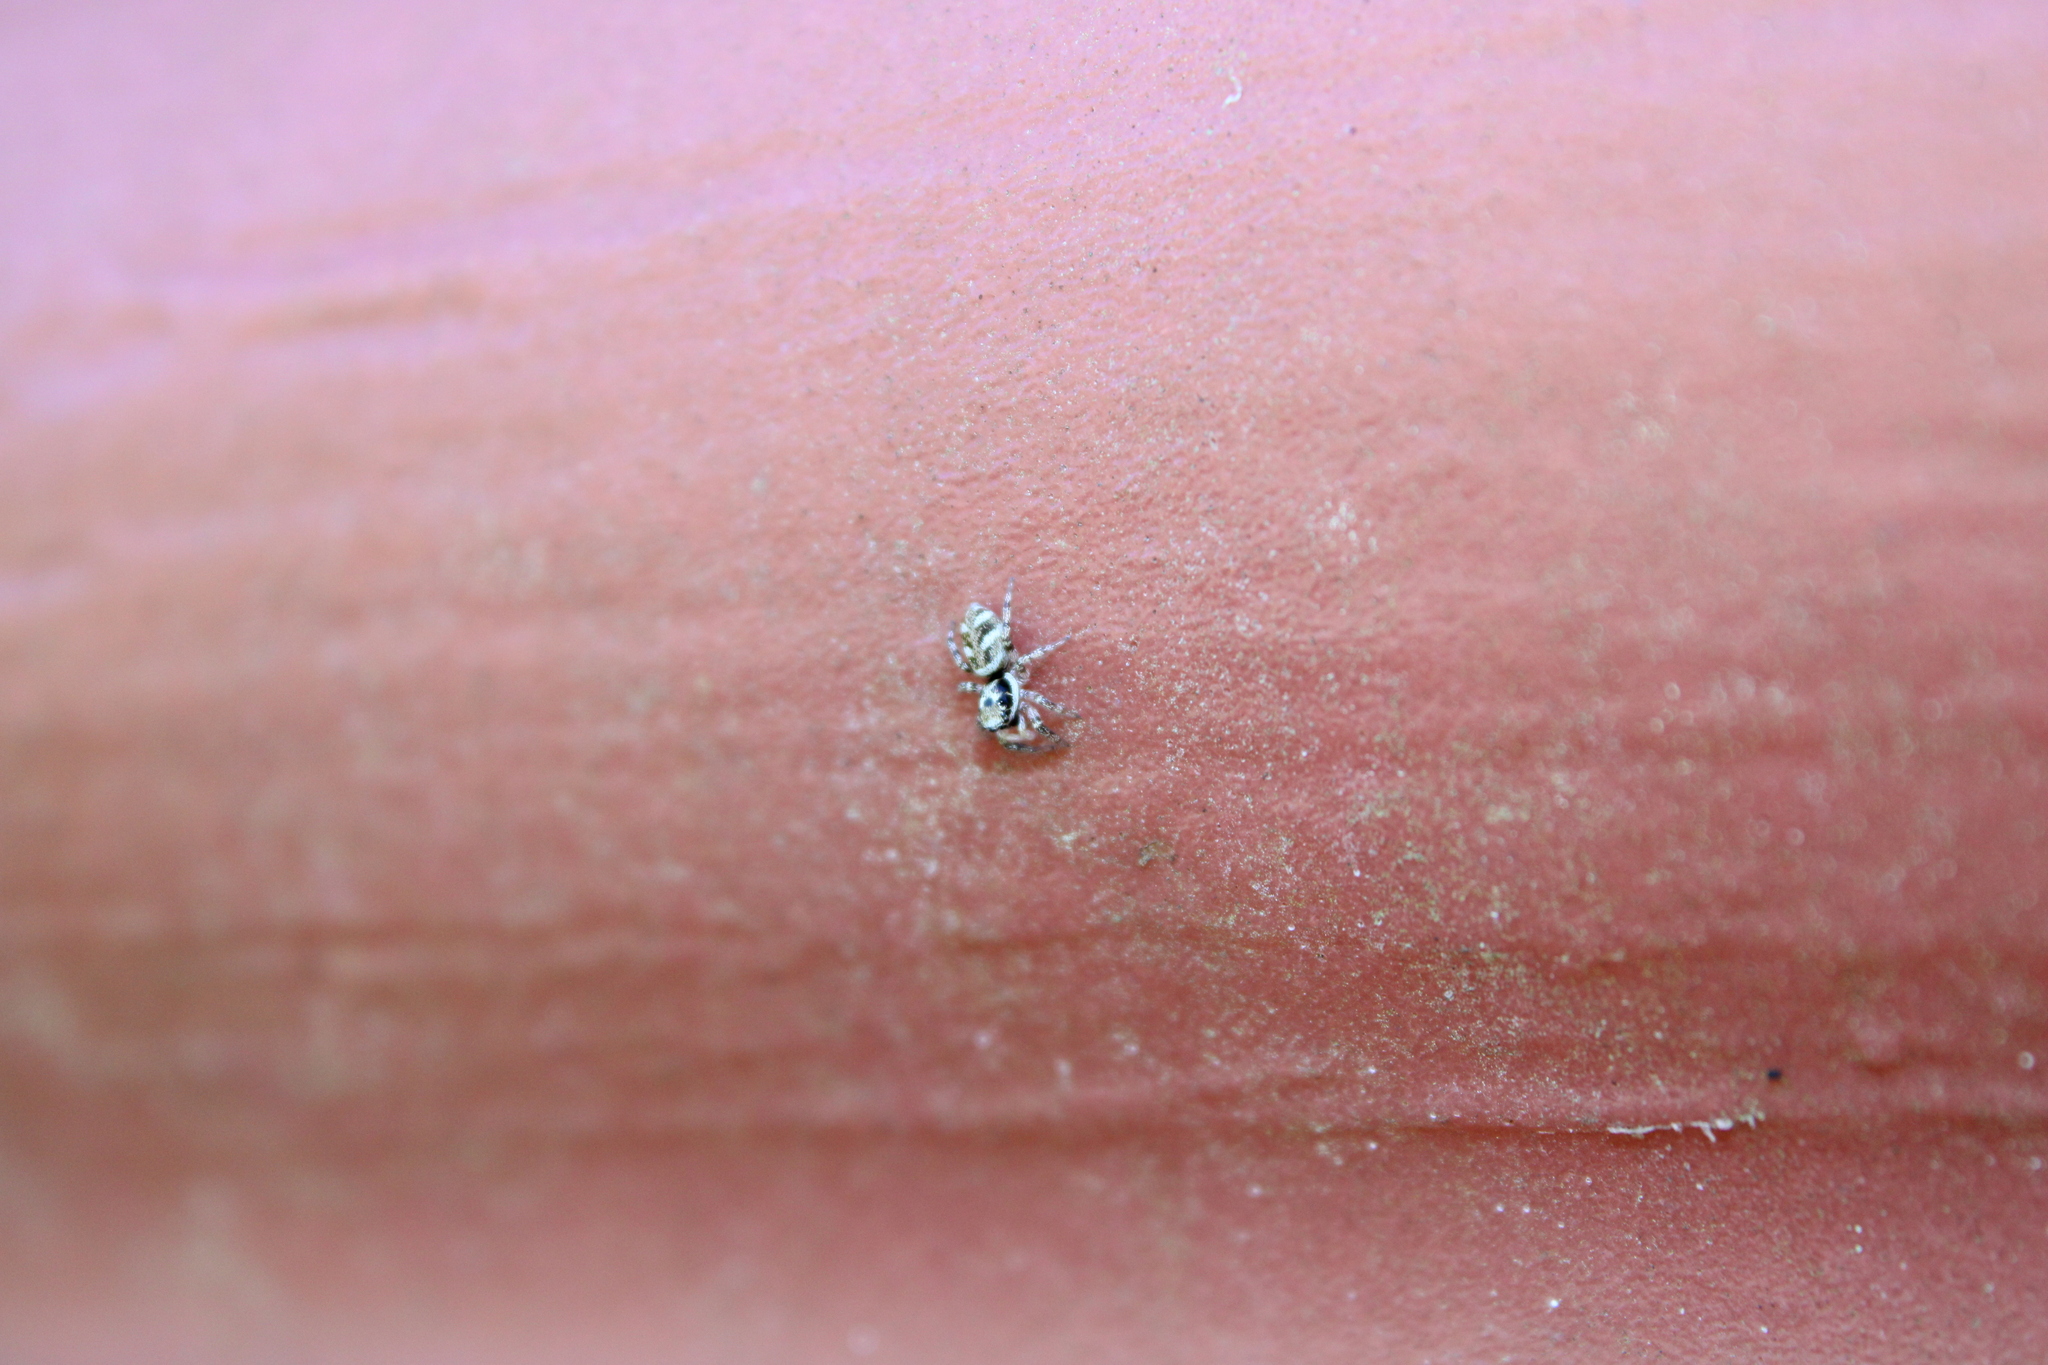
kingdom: Animalia
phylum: Arthropoda
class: Arachnida
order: Araneae
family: Salticidae
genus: Salticus
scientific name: Salticus scenicus
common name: Zebra jumper
